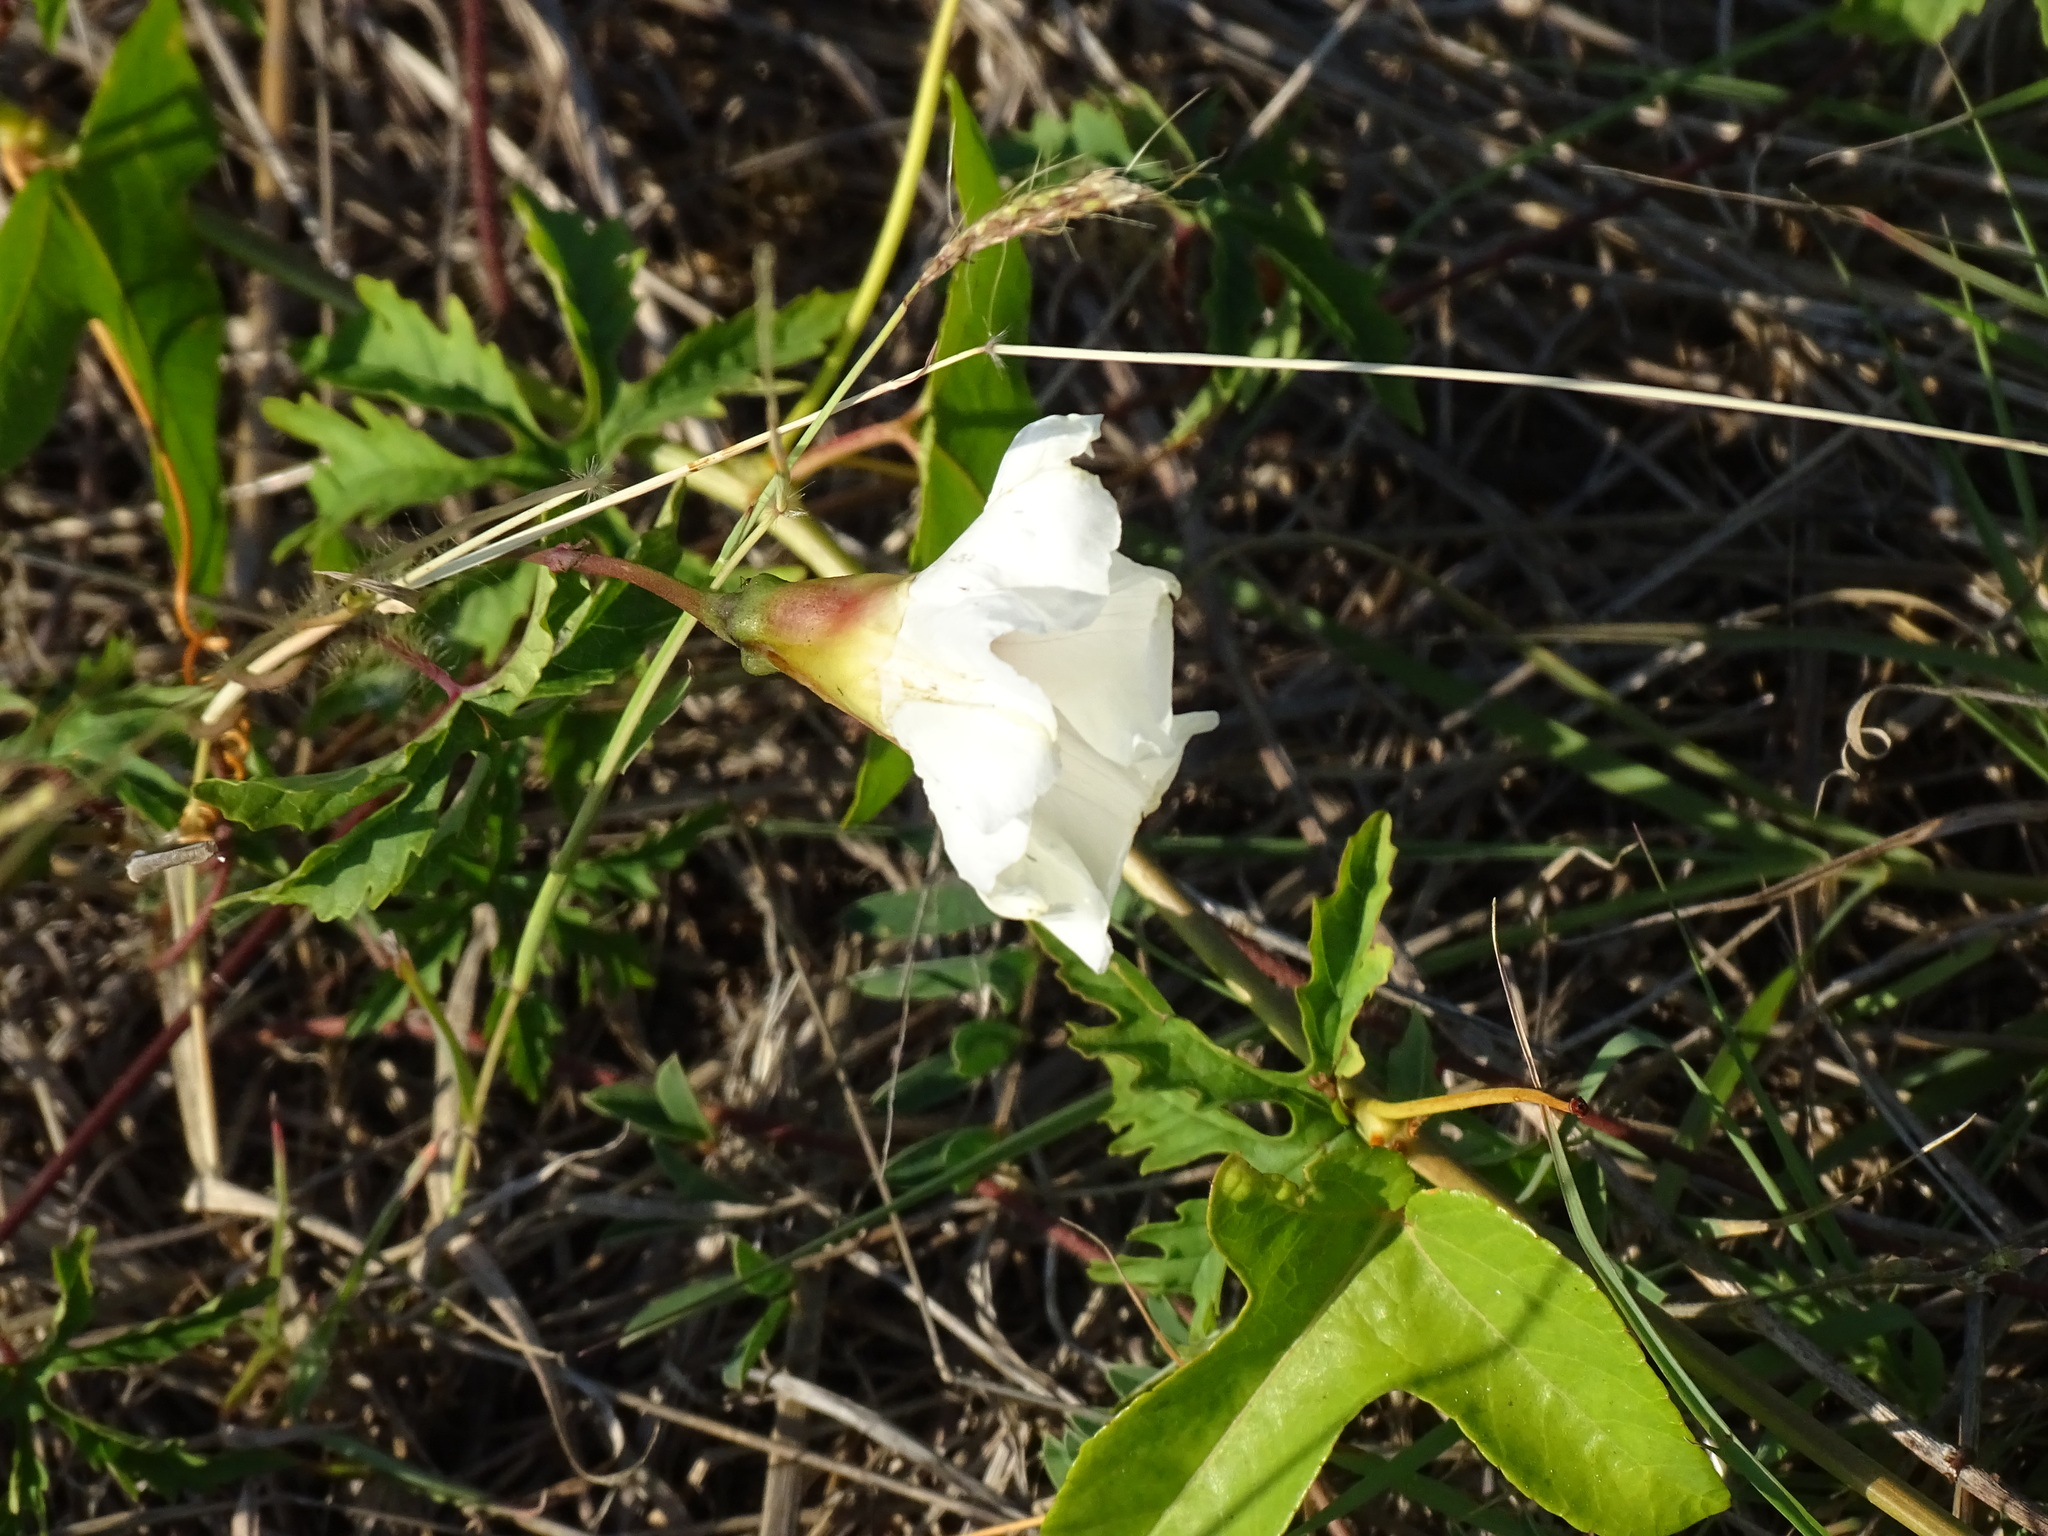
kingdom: Plantae
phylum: Tracheophyta
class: Magnoliopsida
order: Solanales
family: Convolvulaceae
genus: Distimake
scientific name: Distimake dissectus
